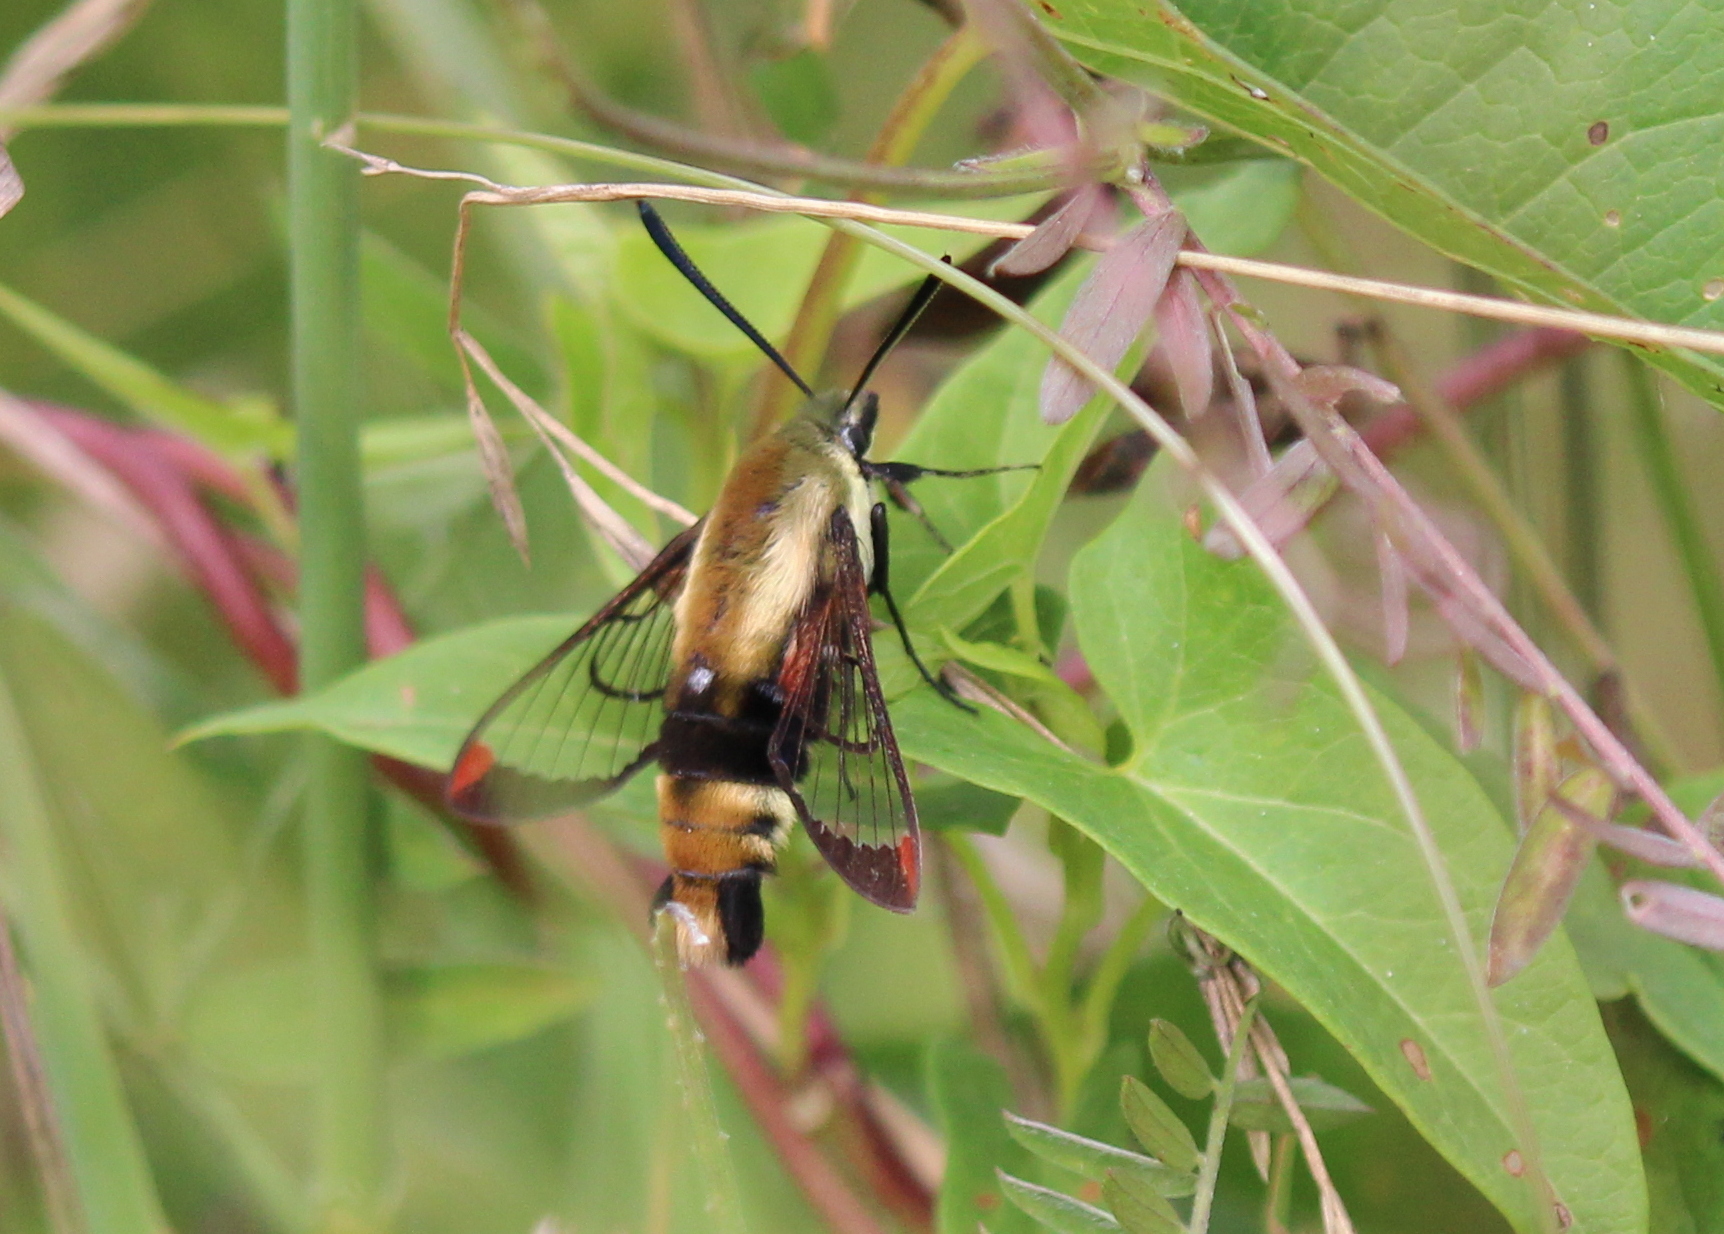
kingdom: Animalia
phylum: Arthropoda
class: Insecta
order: Lepidoptera
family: Sphingidae
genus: Hemaris
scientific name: Hemaris diffinis
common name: Bumblebee moth
